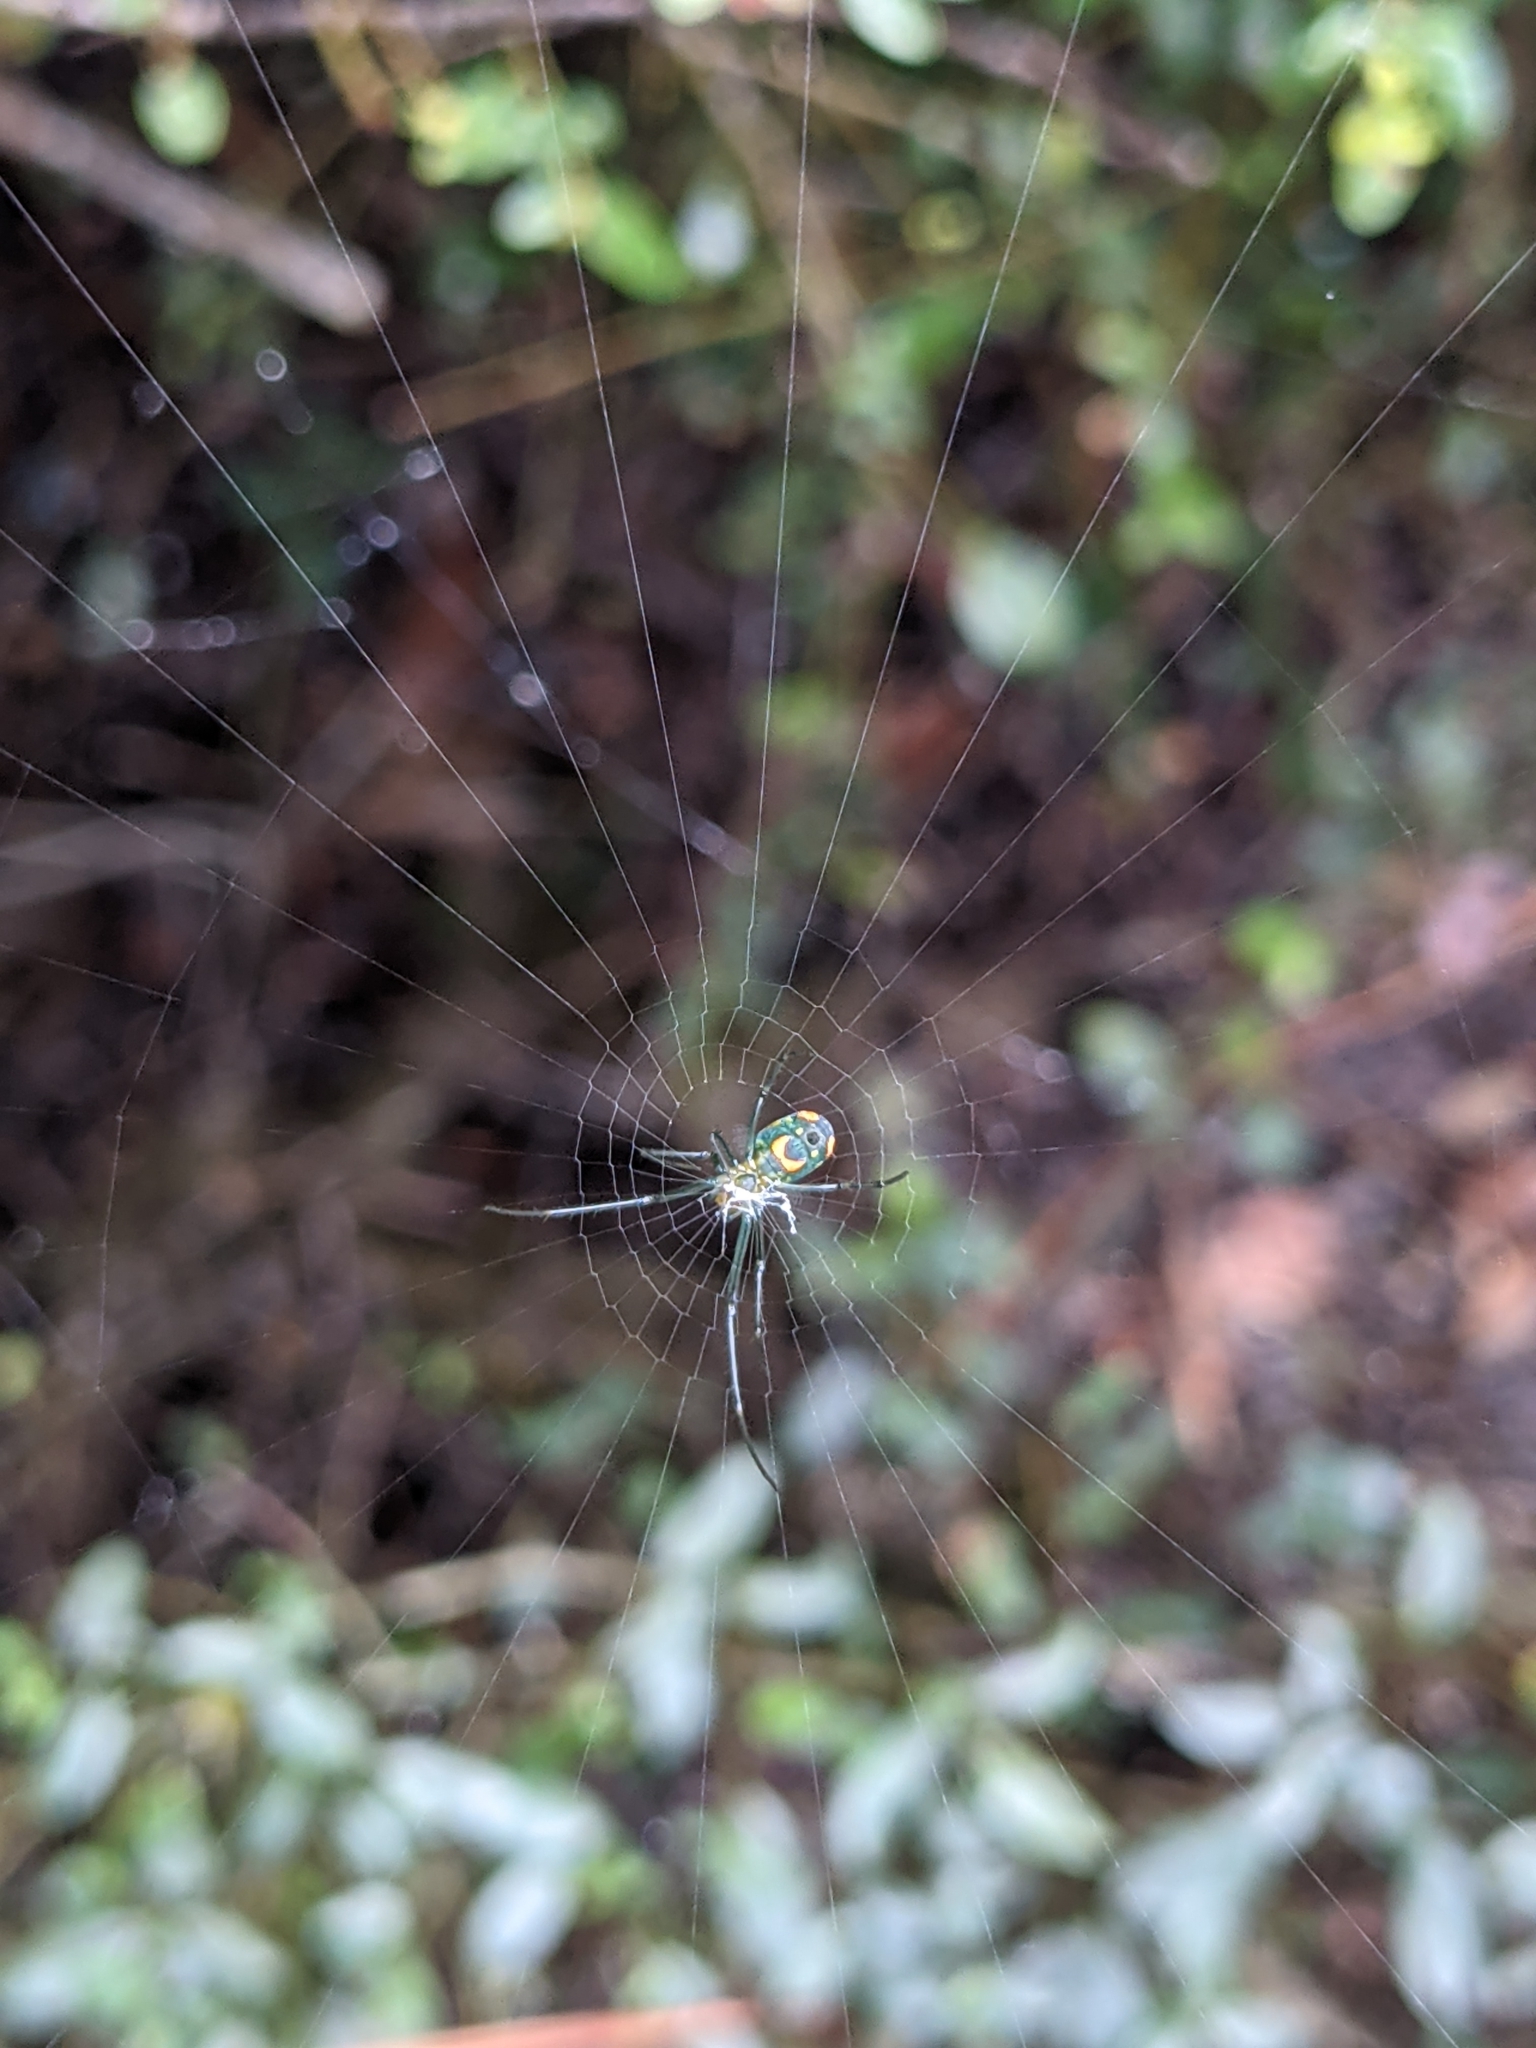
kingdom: Animalia
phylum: Arthropoda
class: Arachnida
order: Araneae
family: Tetragnathidae
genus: Leucauge
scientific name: Leucauge argyrobapta
